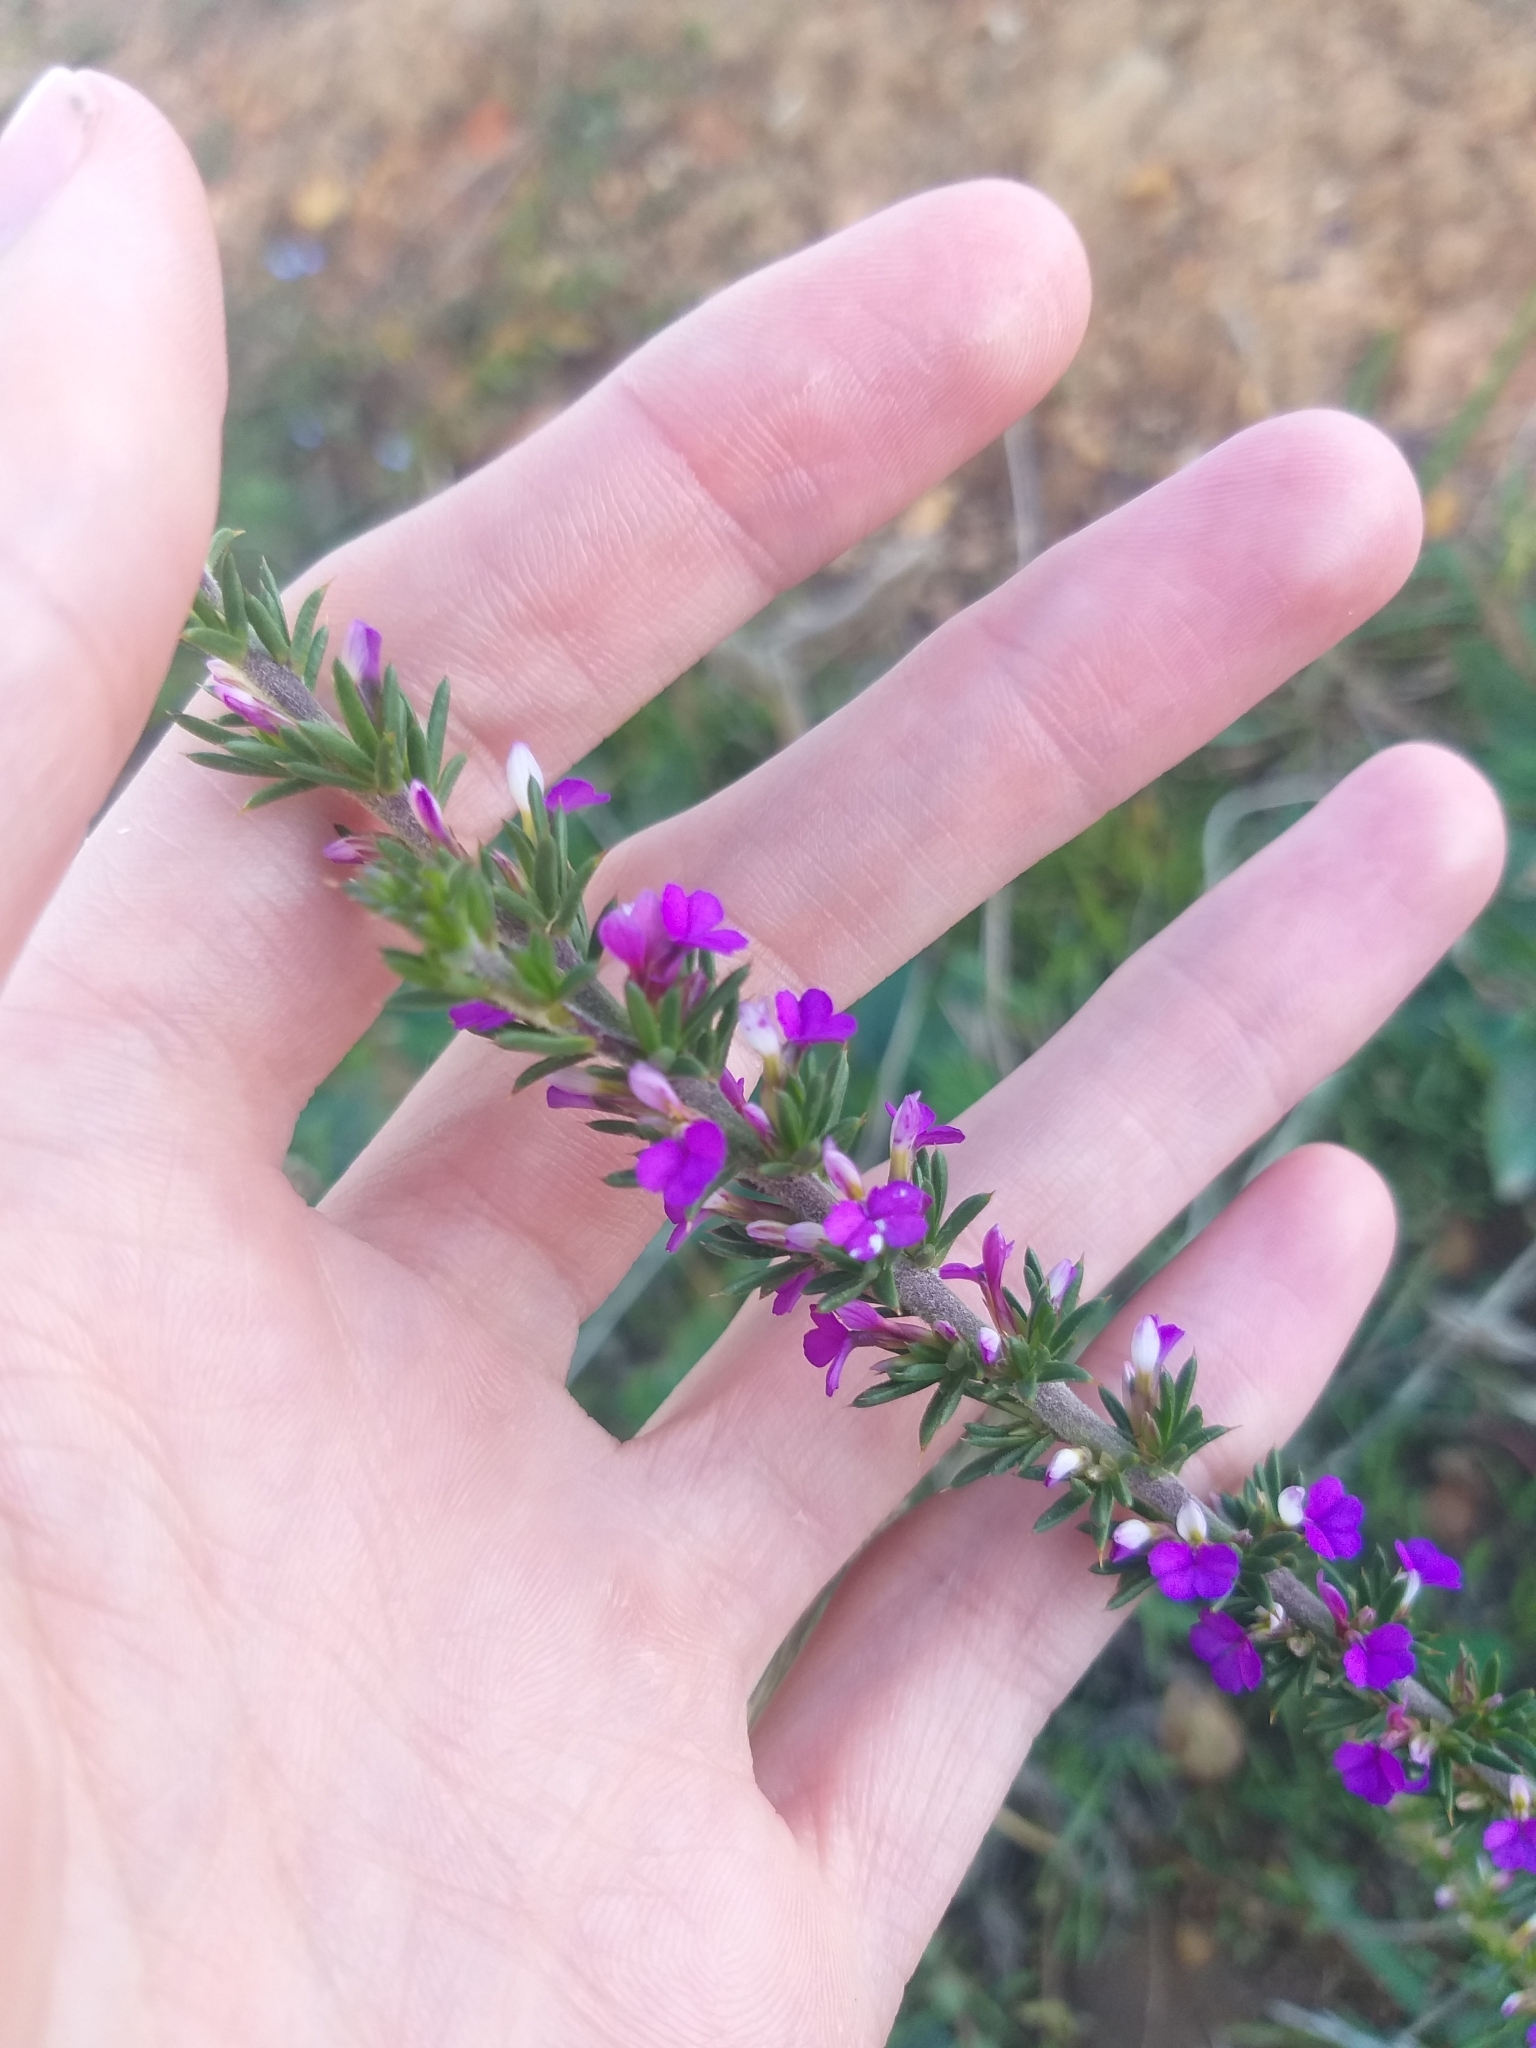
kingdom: Plantae
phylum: Tracheophyta
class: Magnoliopsida
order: Fabales
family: Polygalaceae
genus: Muraltia
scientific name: Muraltia heisteria
